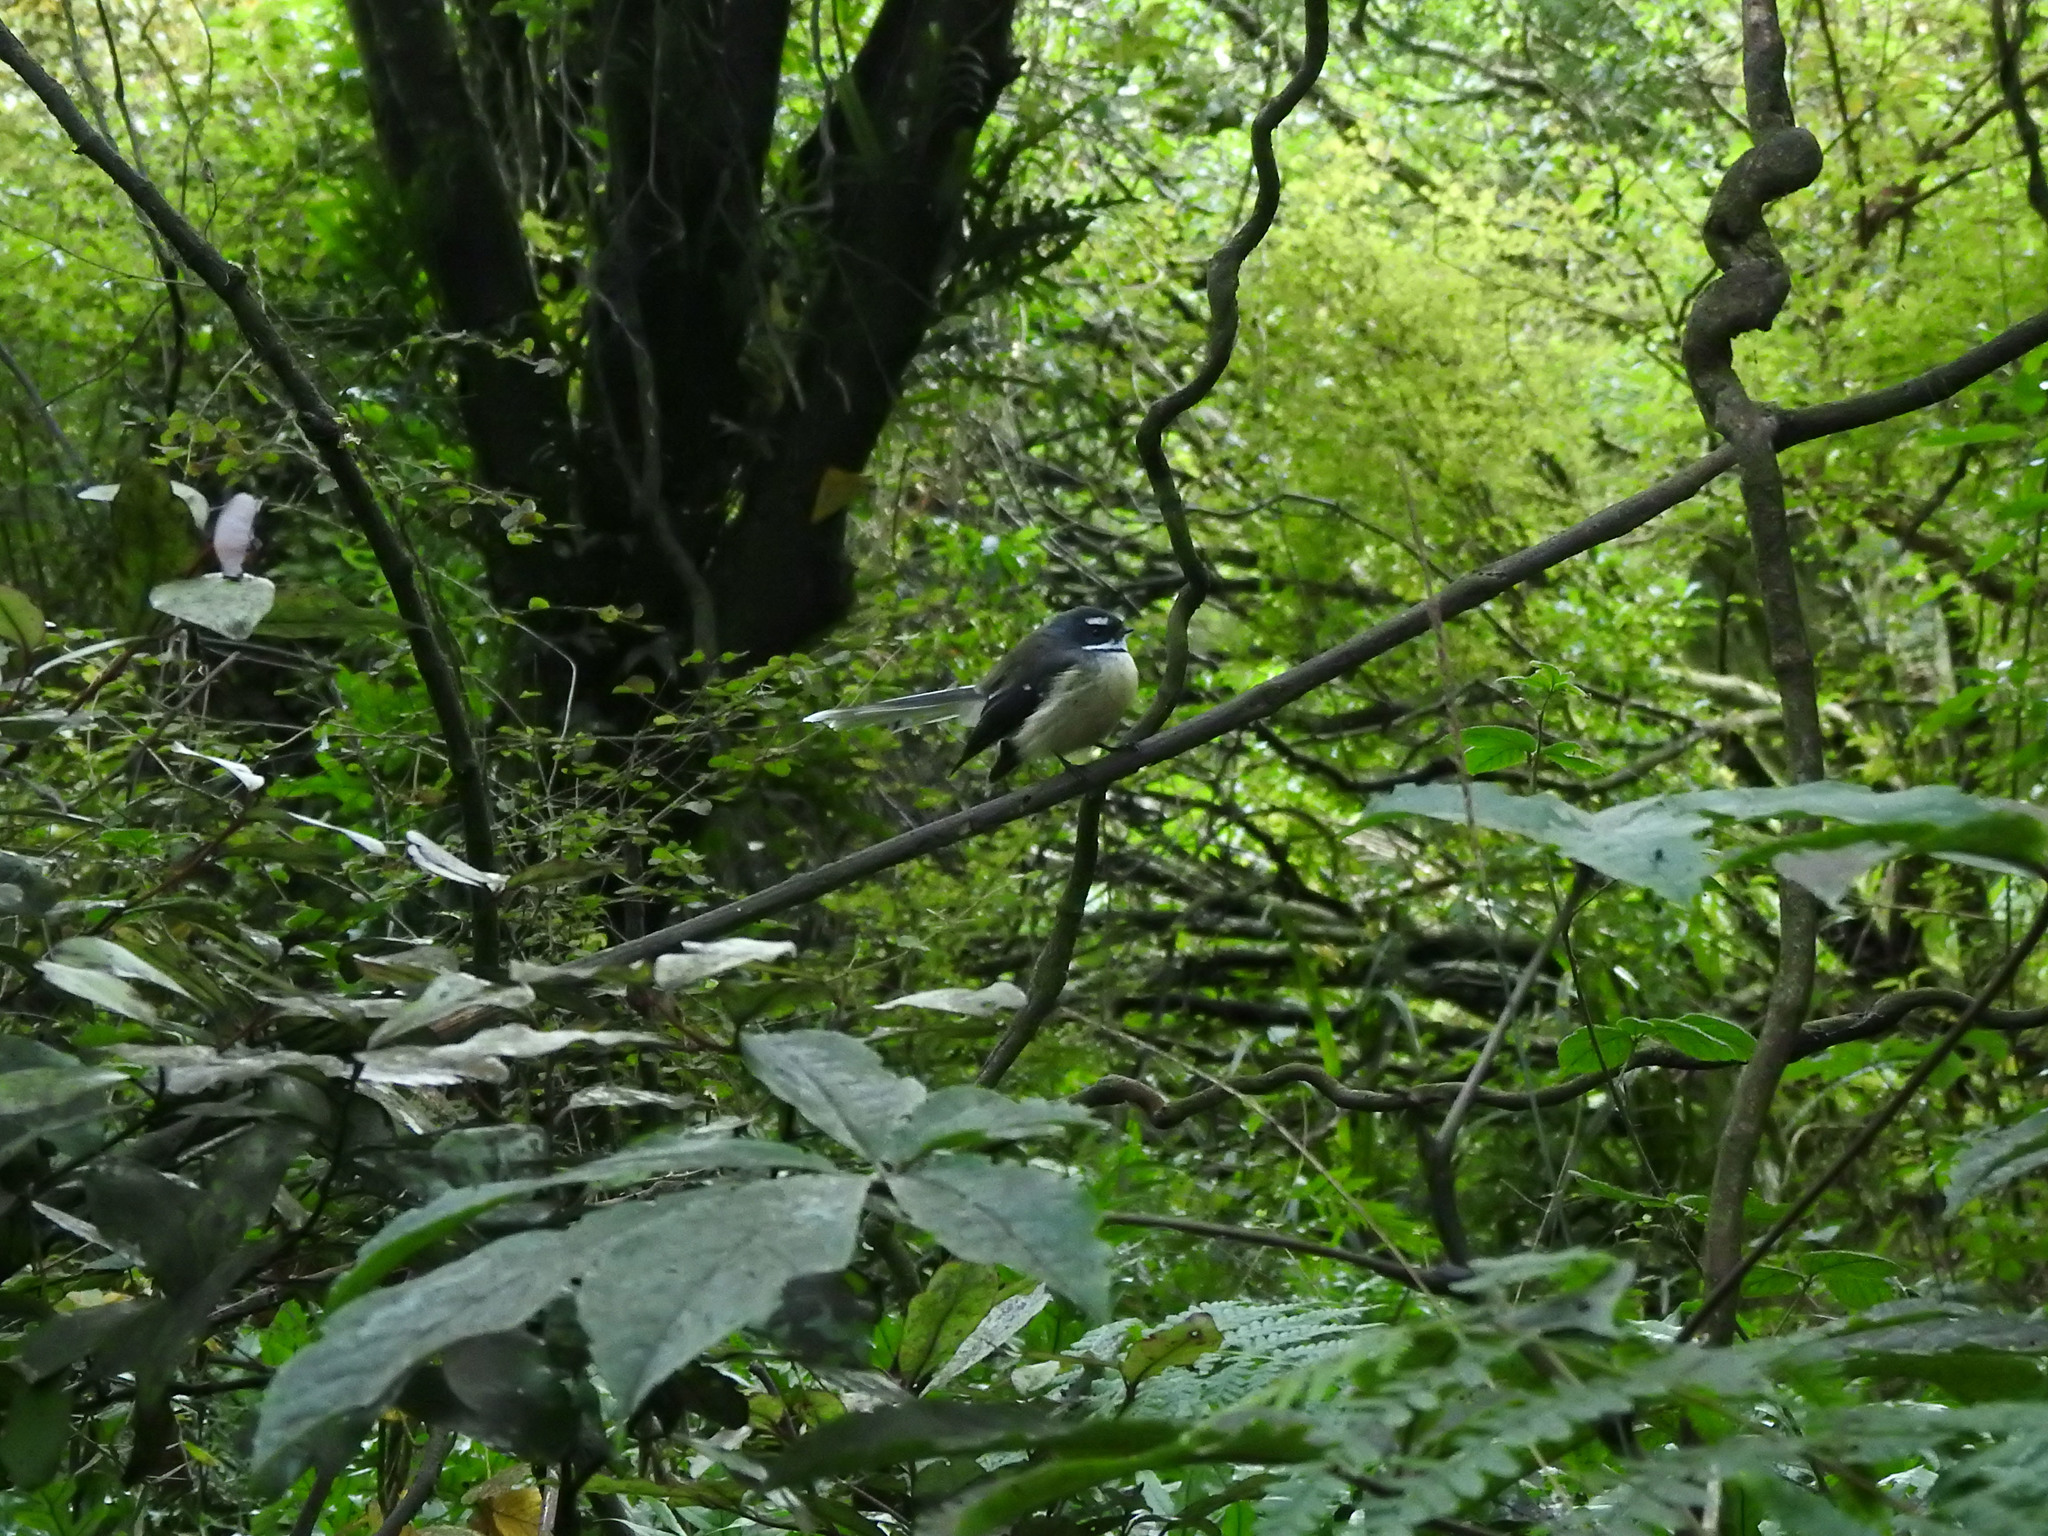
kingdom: Animalia
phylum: Chordata
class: Aves
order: Passeriformes
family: Rhipiduridae
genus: Rhipidura
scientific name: Rhipidura fuliginosa
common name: New zealand fantail
